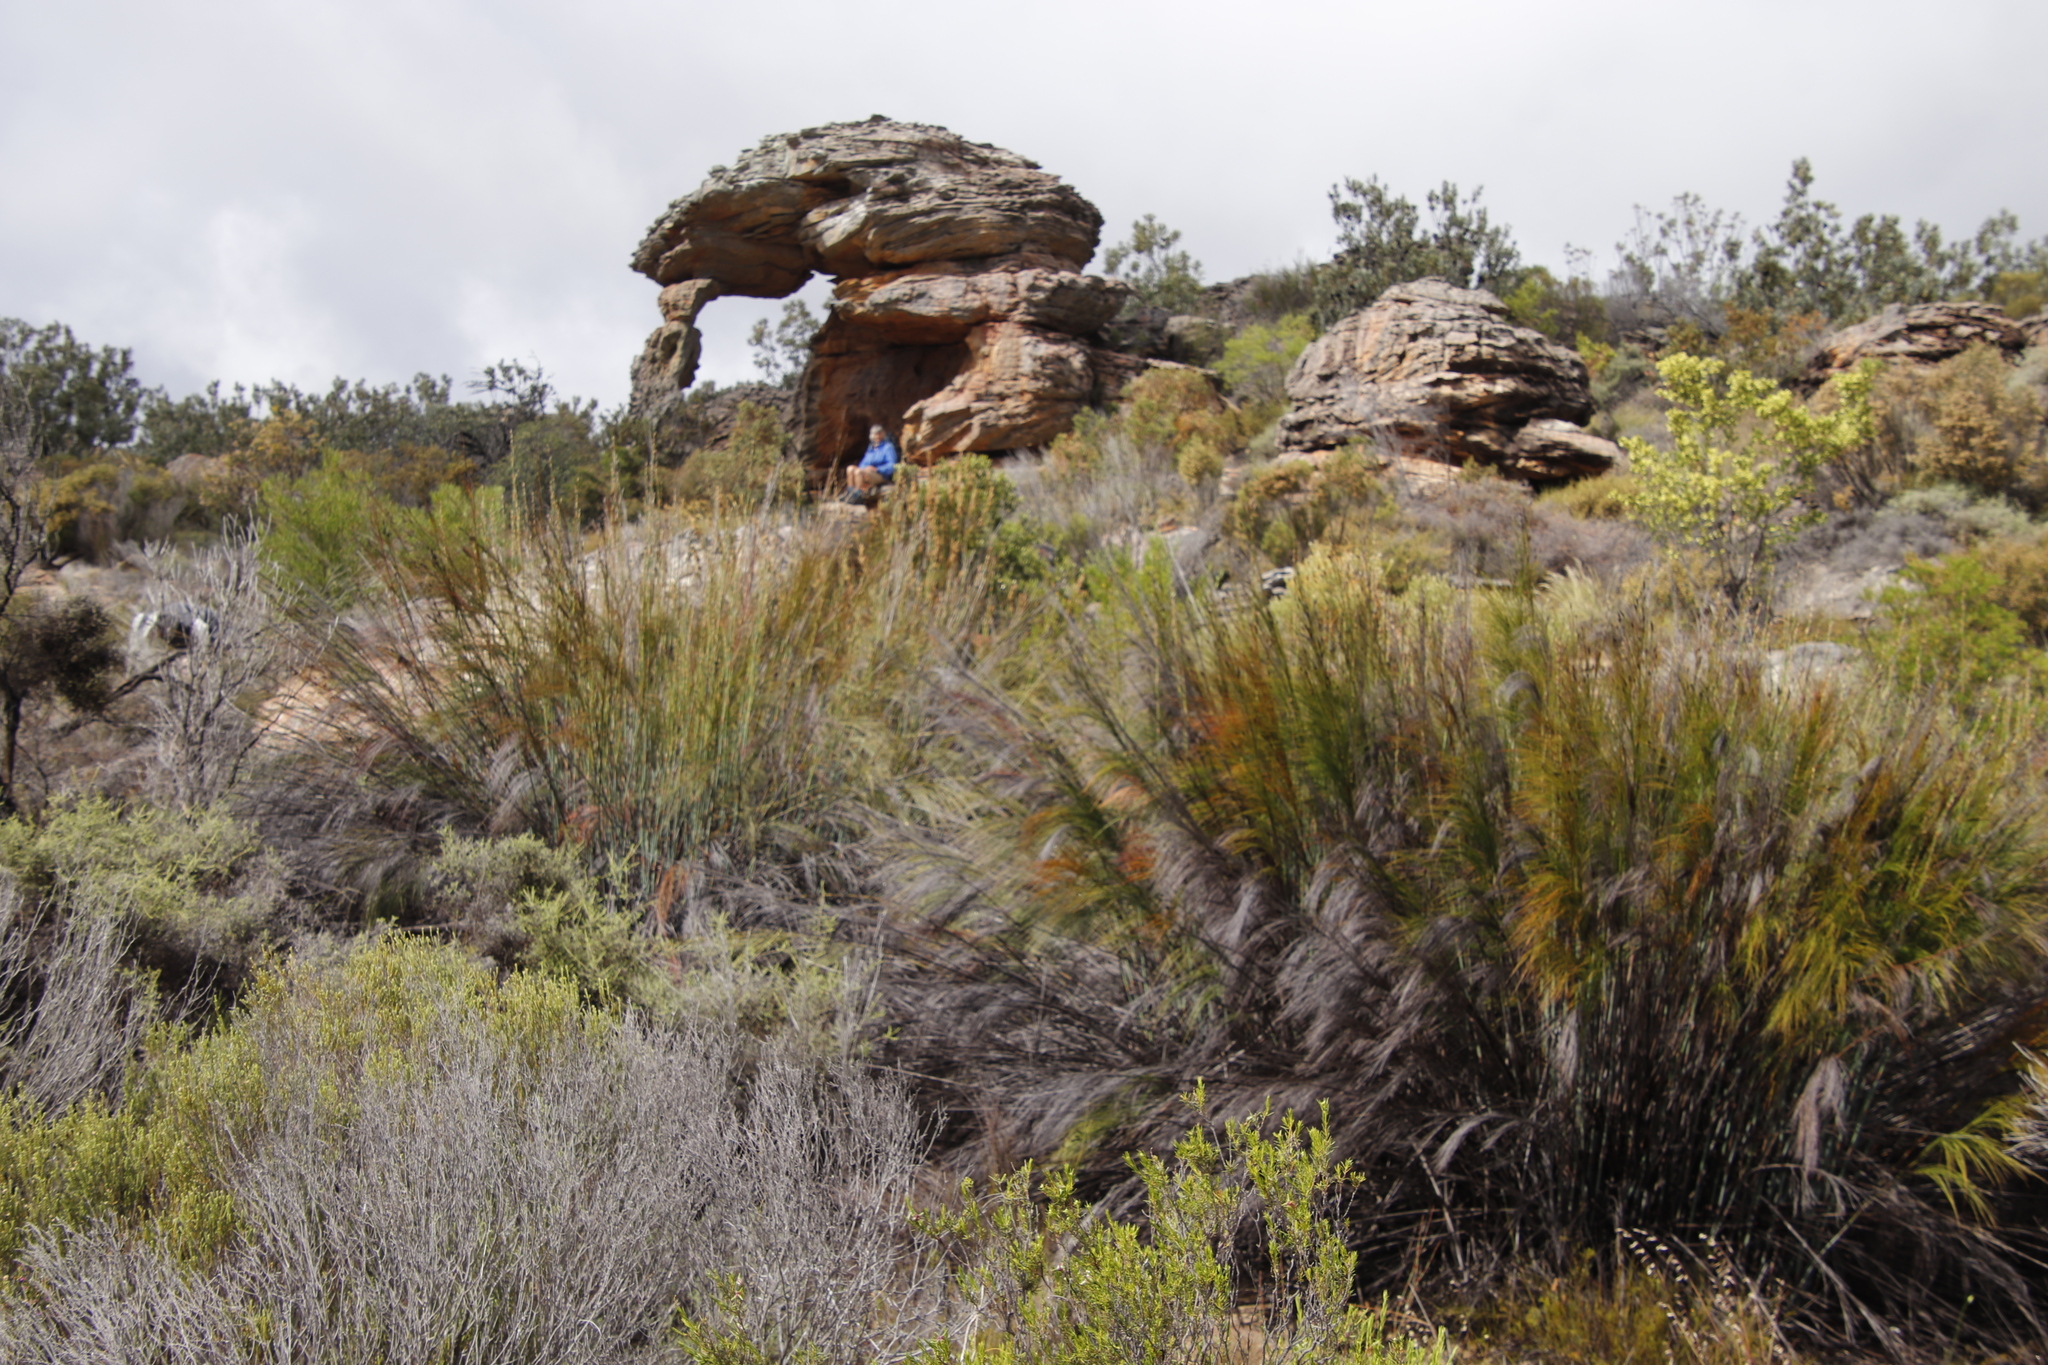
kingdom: Plantae
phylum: Tracheophyta
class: Liliopsida
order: Poales
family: Restionaceae
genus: Cannomois
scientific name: Cannomois robusta
